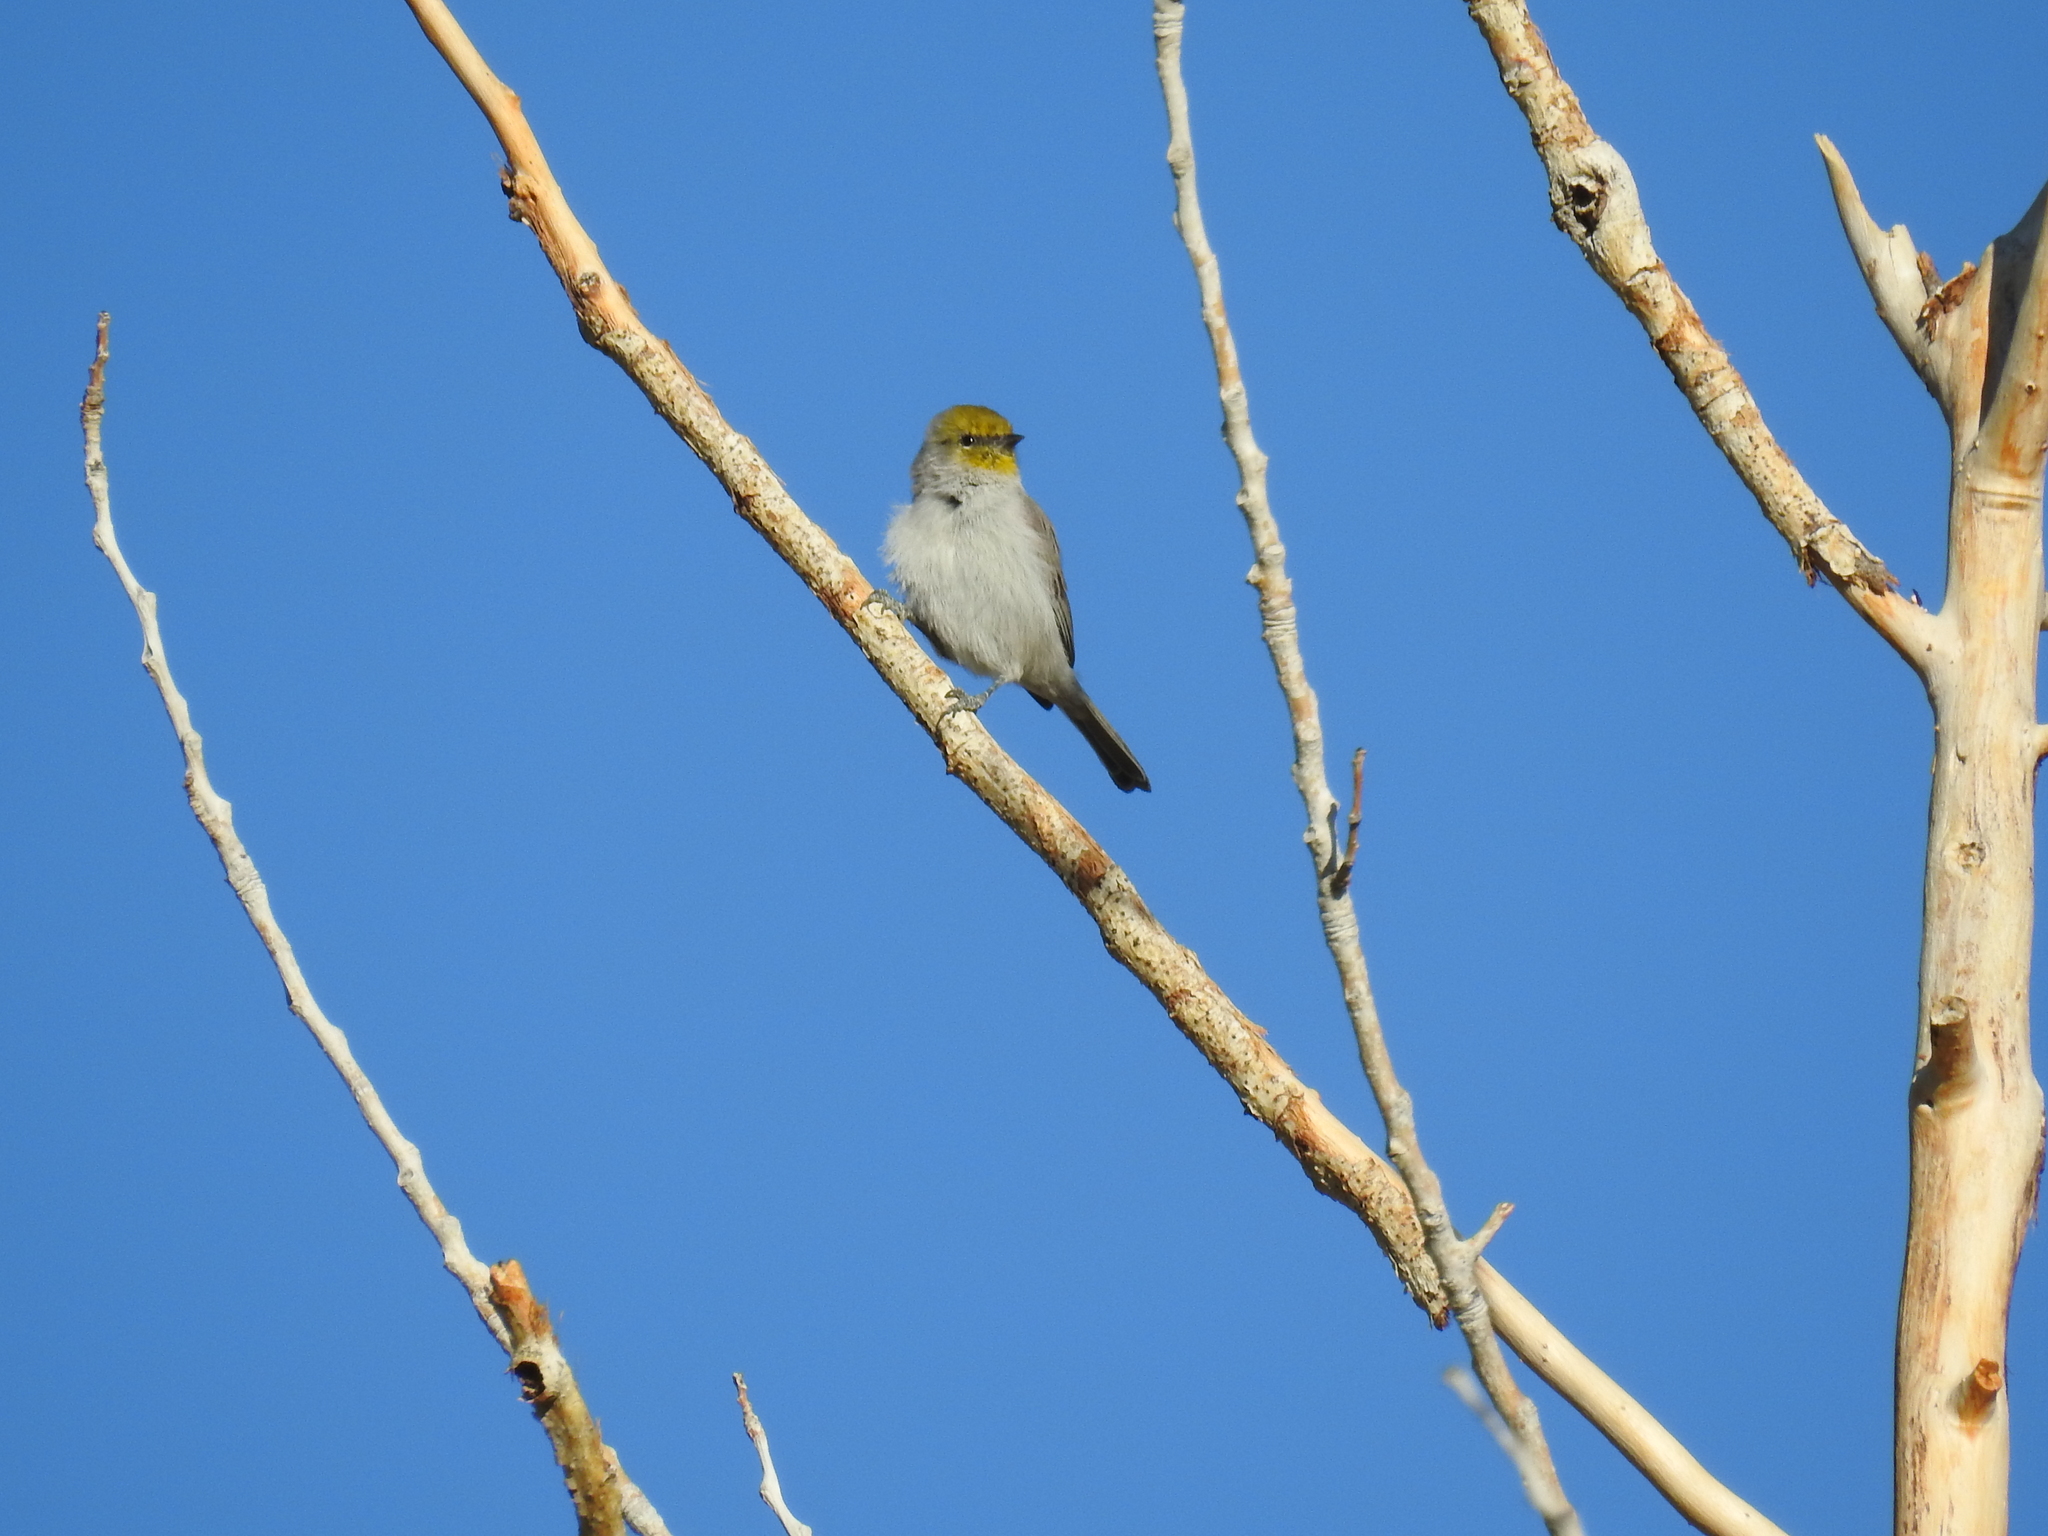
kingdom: Animalia
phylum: Chordata
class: Aves
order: Passeriformes
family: Remizidae
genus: Auriparus
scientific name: Auriparus flaviceps
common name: Verdin
